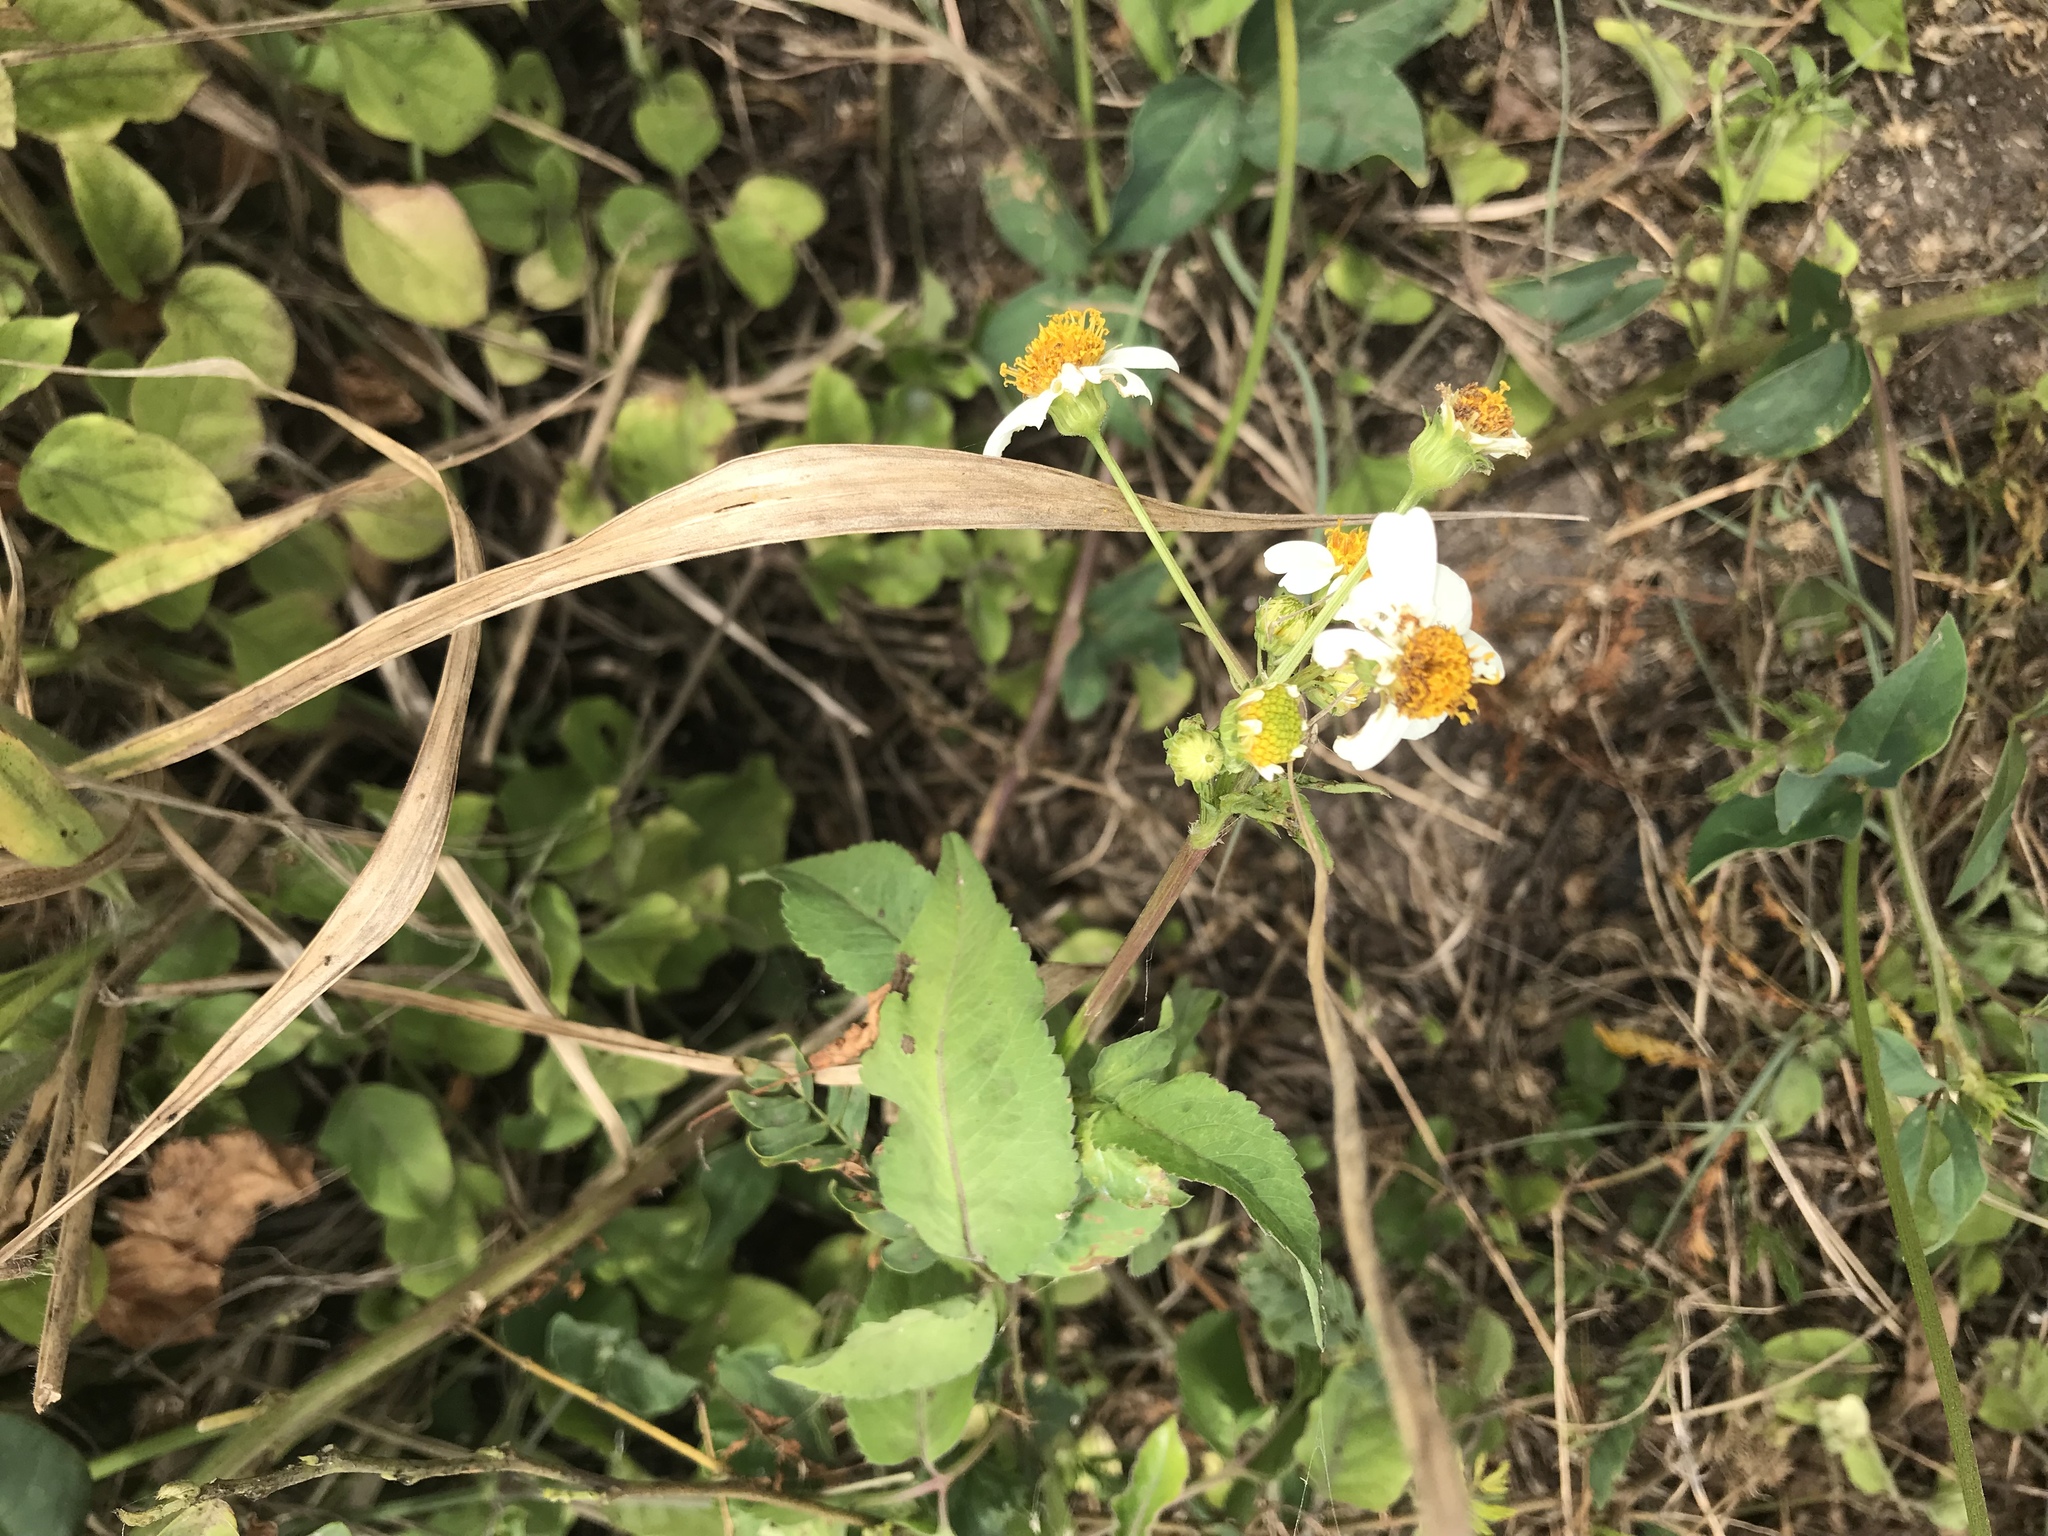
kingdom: Plantae
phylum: Tracheophyta
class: Magnoliopsida
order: Asterales
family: Asteraceae
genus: Bidens
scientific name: Bidens alba
